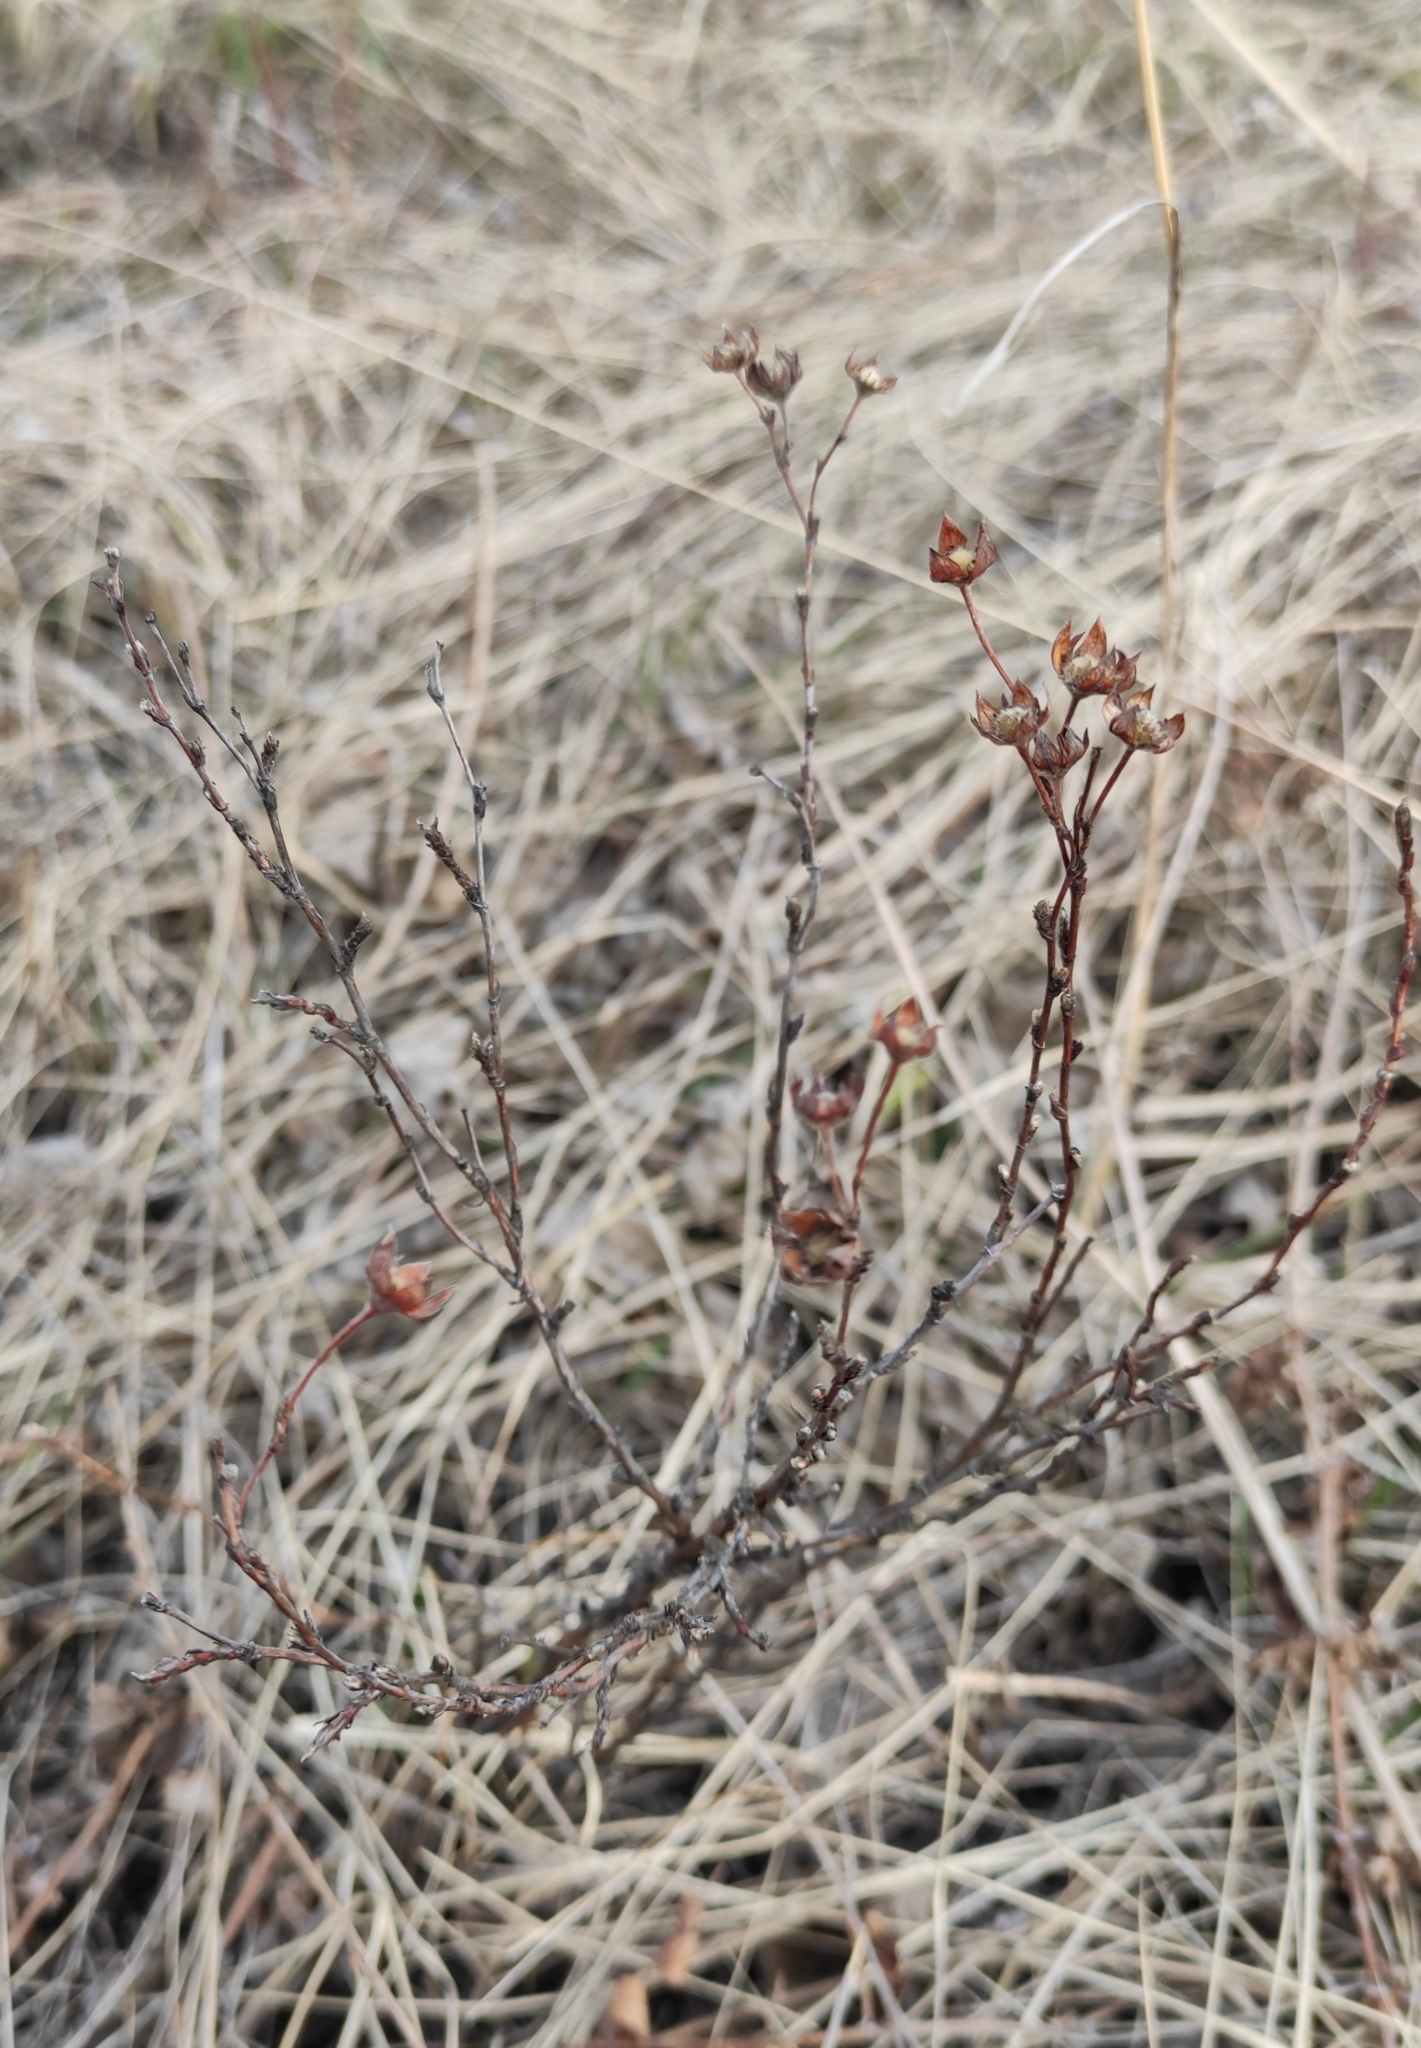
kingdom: Plantae
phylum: Tracheophyta
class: Magnoliopsida
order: Rosales
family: Rosaceae
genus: Dasiphora
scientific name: Dasiphora fruticosa
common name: Shrubby cinquefoil
